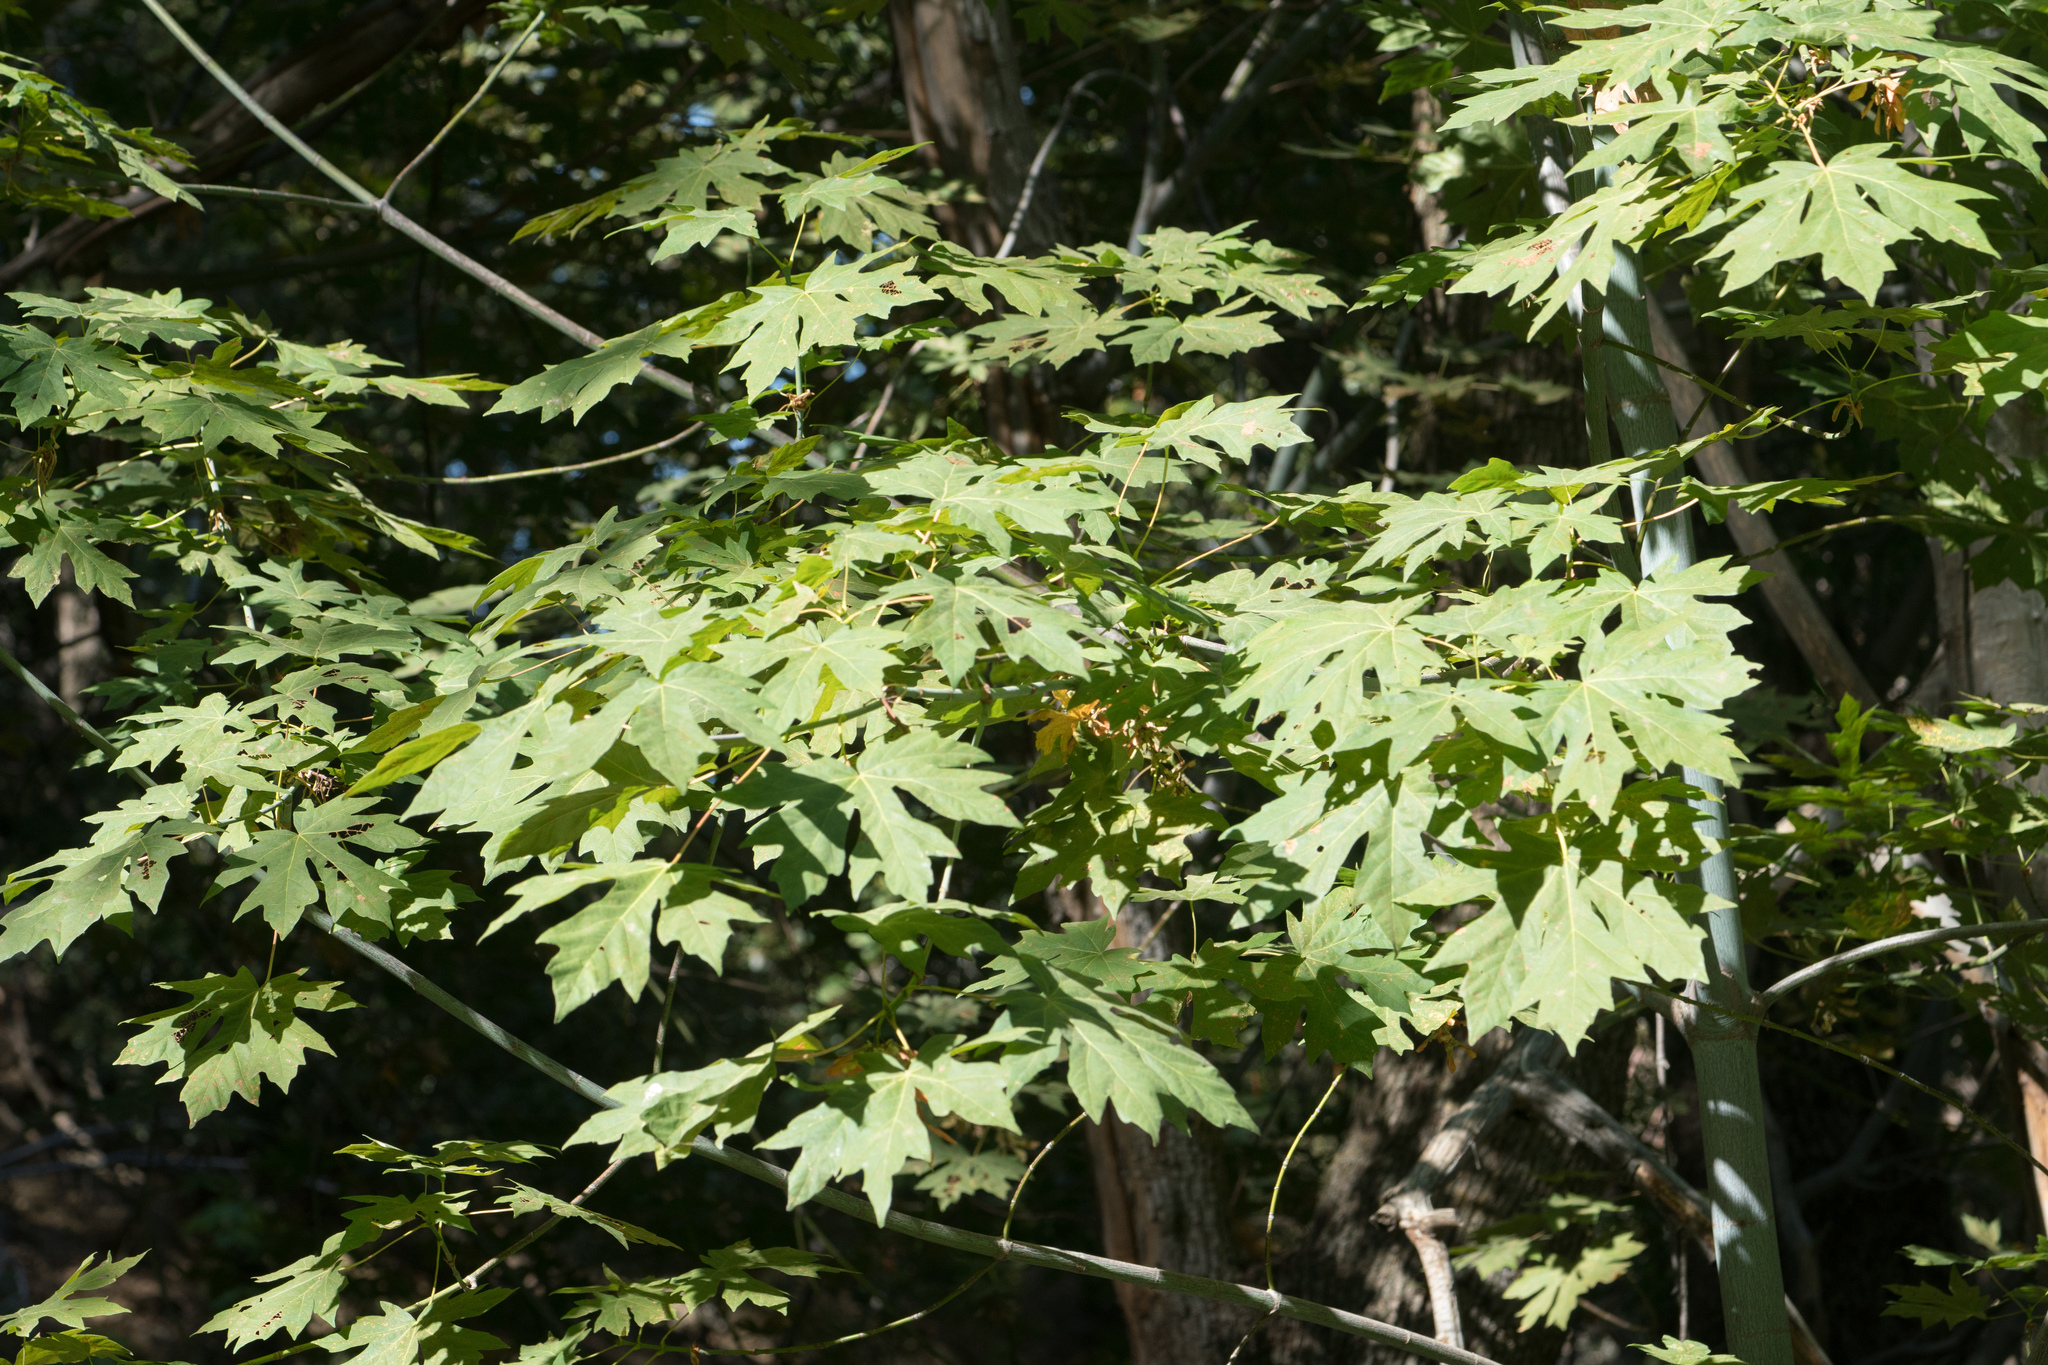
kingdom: Plantae
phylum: Tracheophyta
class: Magnoliopsida
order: Sapindales
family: Sapindaceae
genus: Acer
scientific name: Acer macrophyllum
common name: Oregon maple
